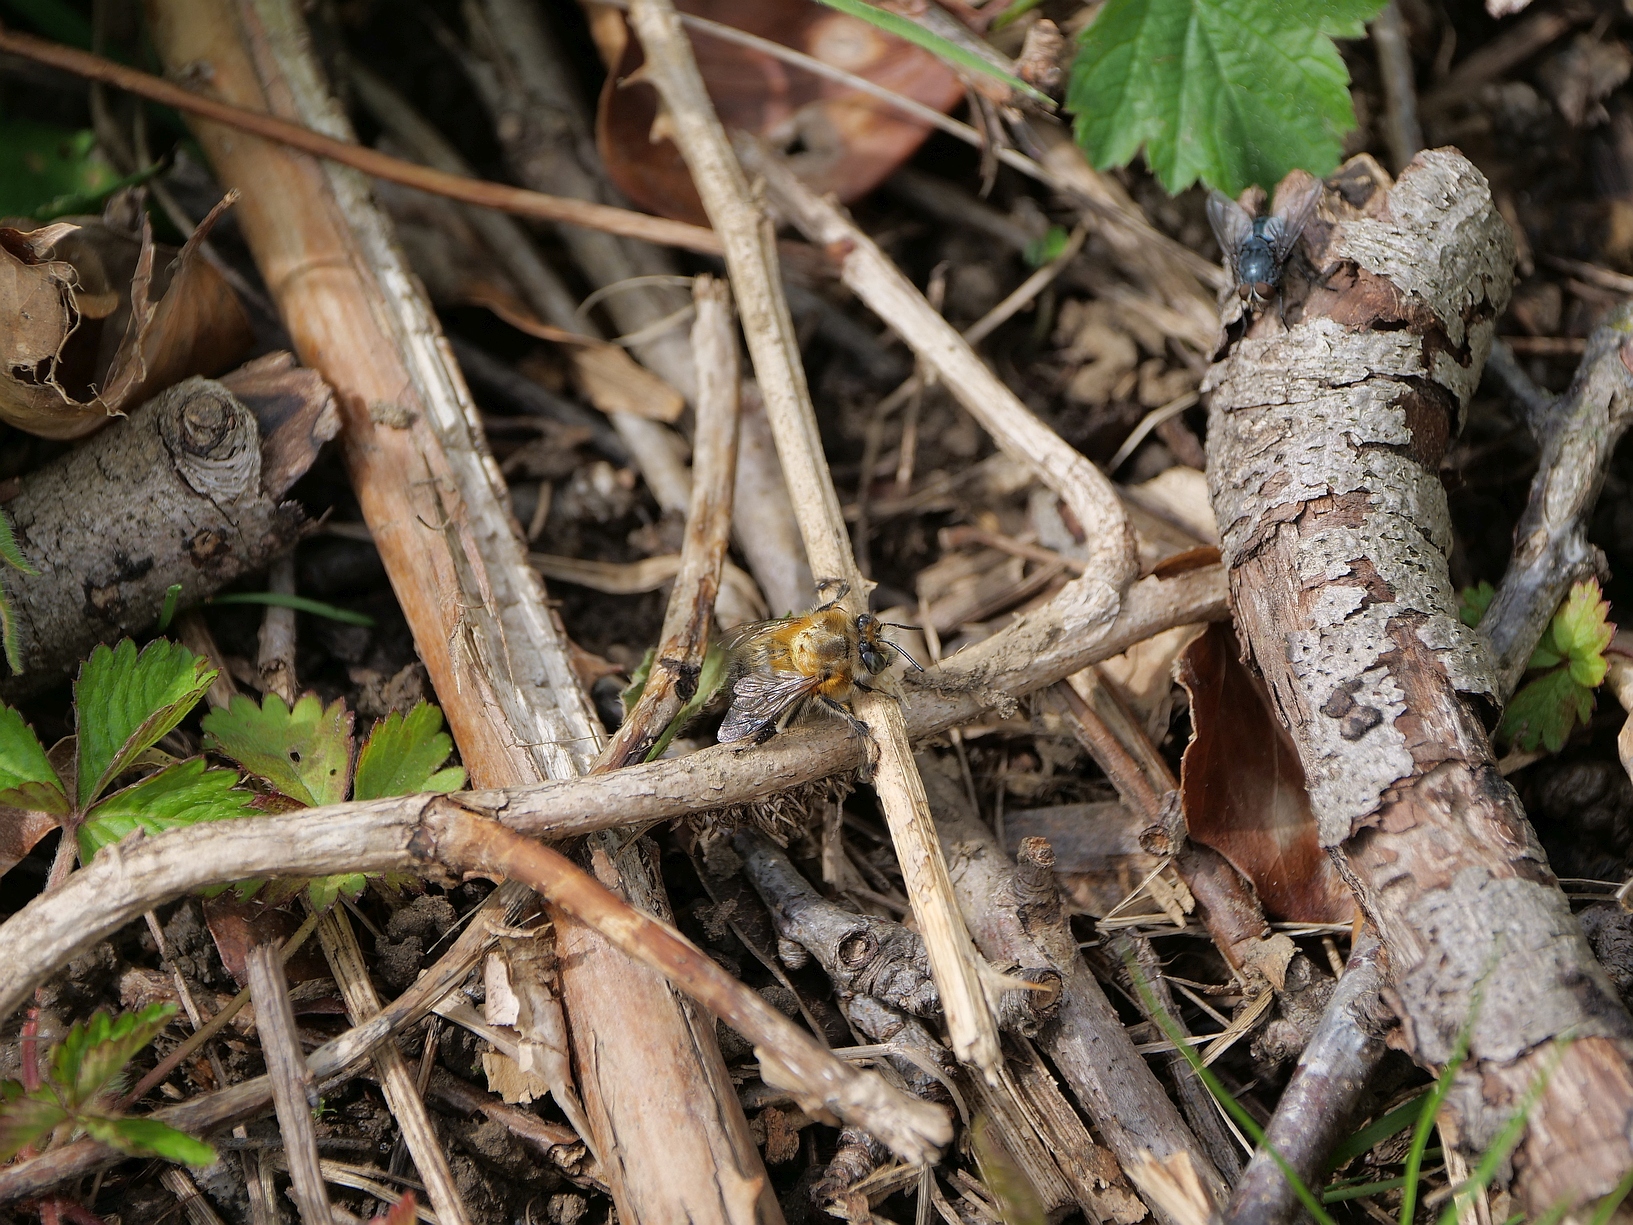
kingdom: Animalia
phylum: Arthropoda
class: Insecta
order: Hymenoptera
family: Apidae
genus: Anthophora
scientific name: Anthophora plumipes
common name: Hairy-footed flower bee
